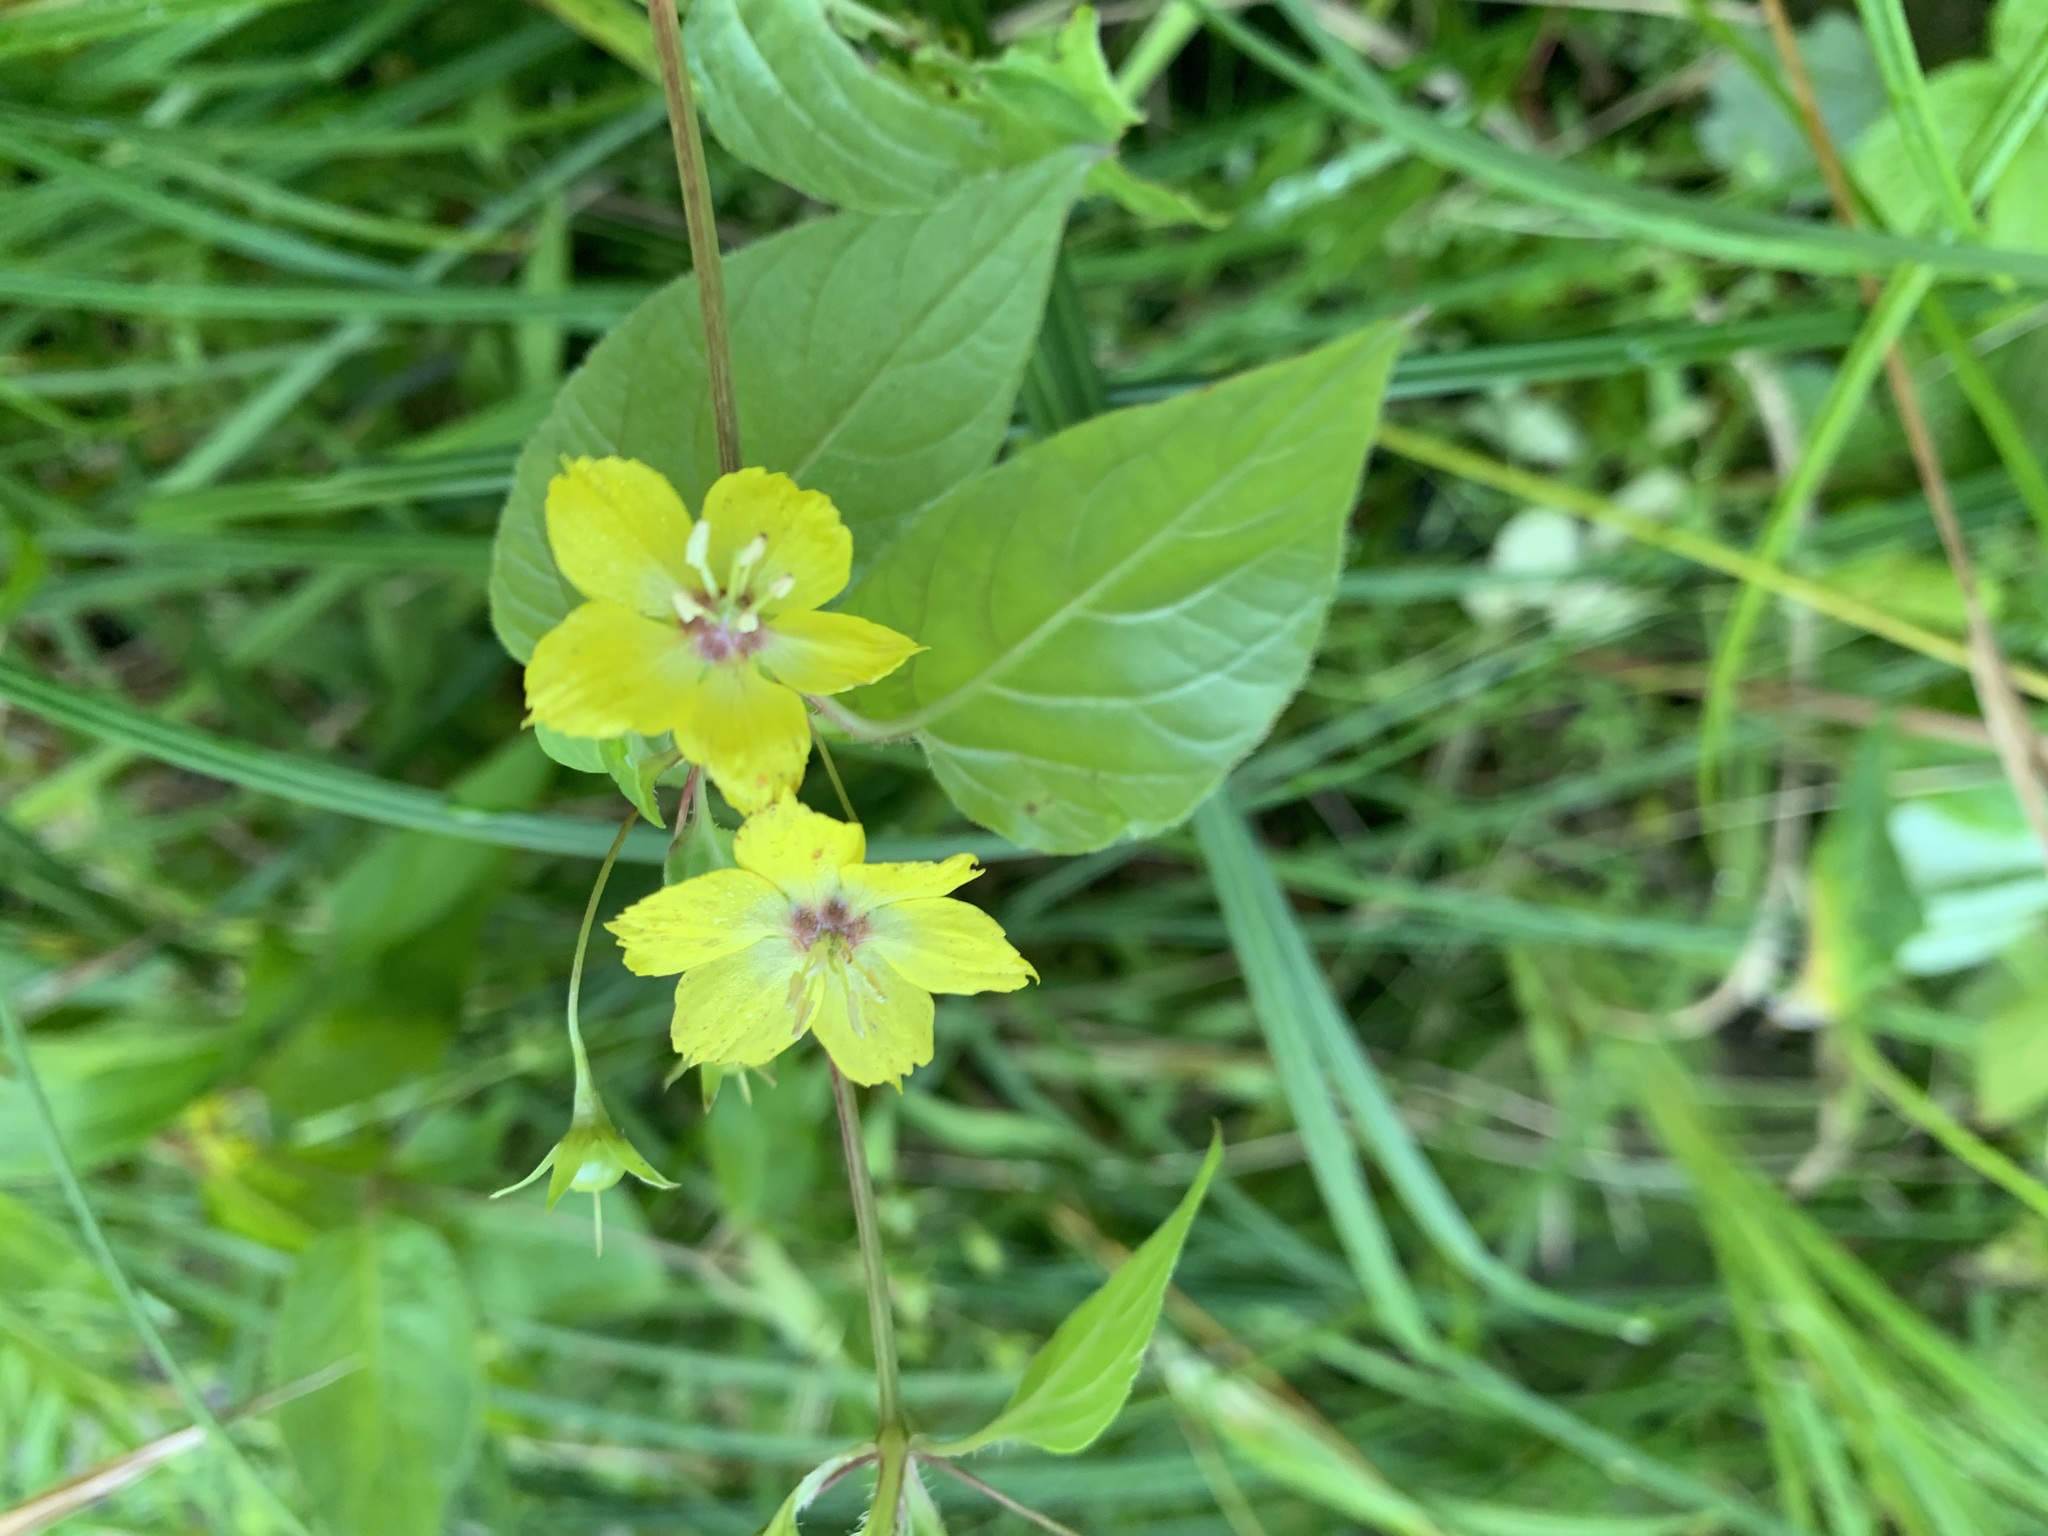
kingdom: Plantae
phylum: Tracheophyta
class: Magnoliopsida
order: Ericales
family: Primulaceae
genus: Lysimachia
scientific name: Lysimachia ciliata
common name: Fringed loosestrife
